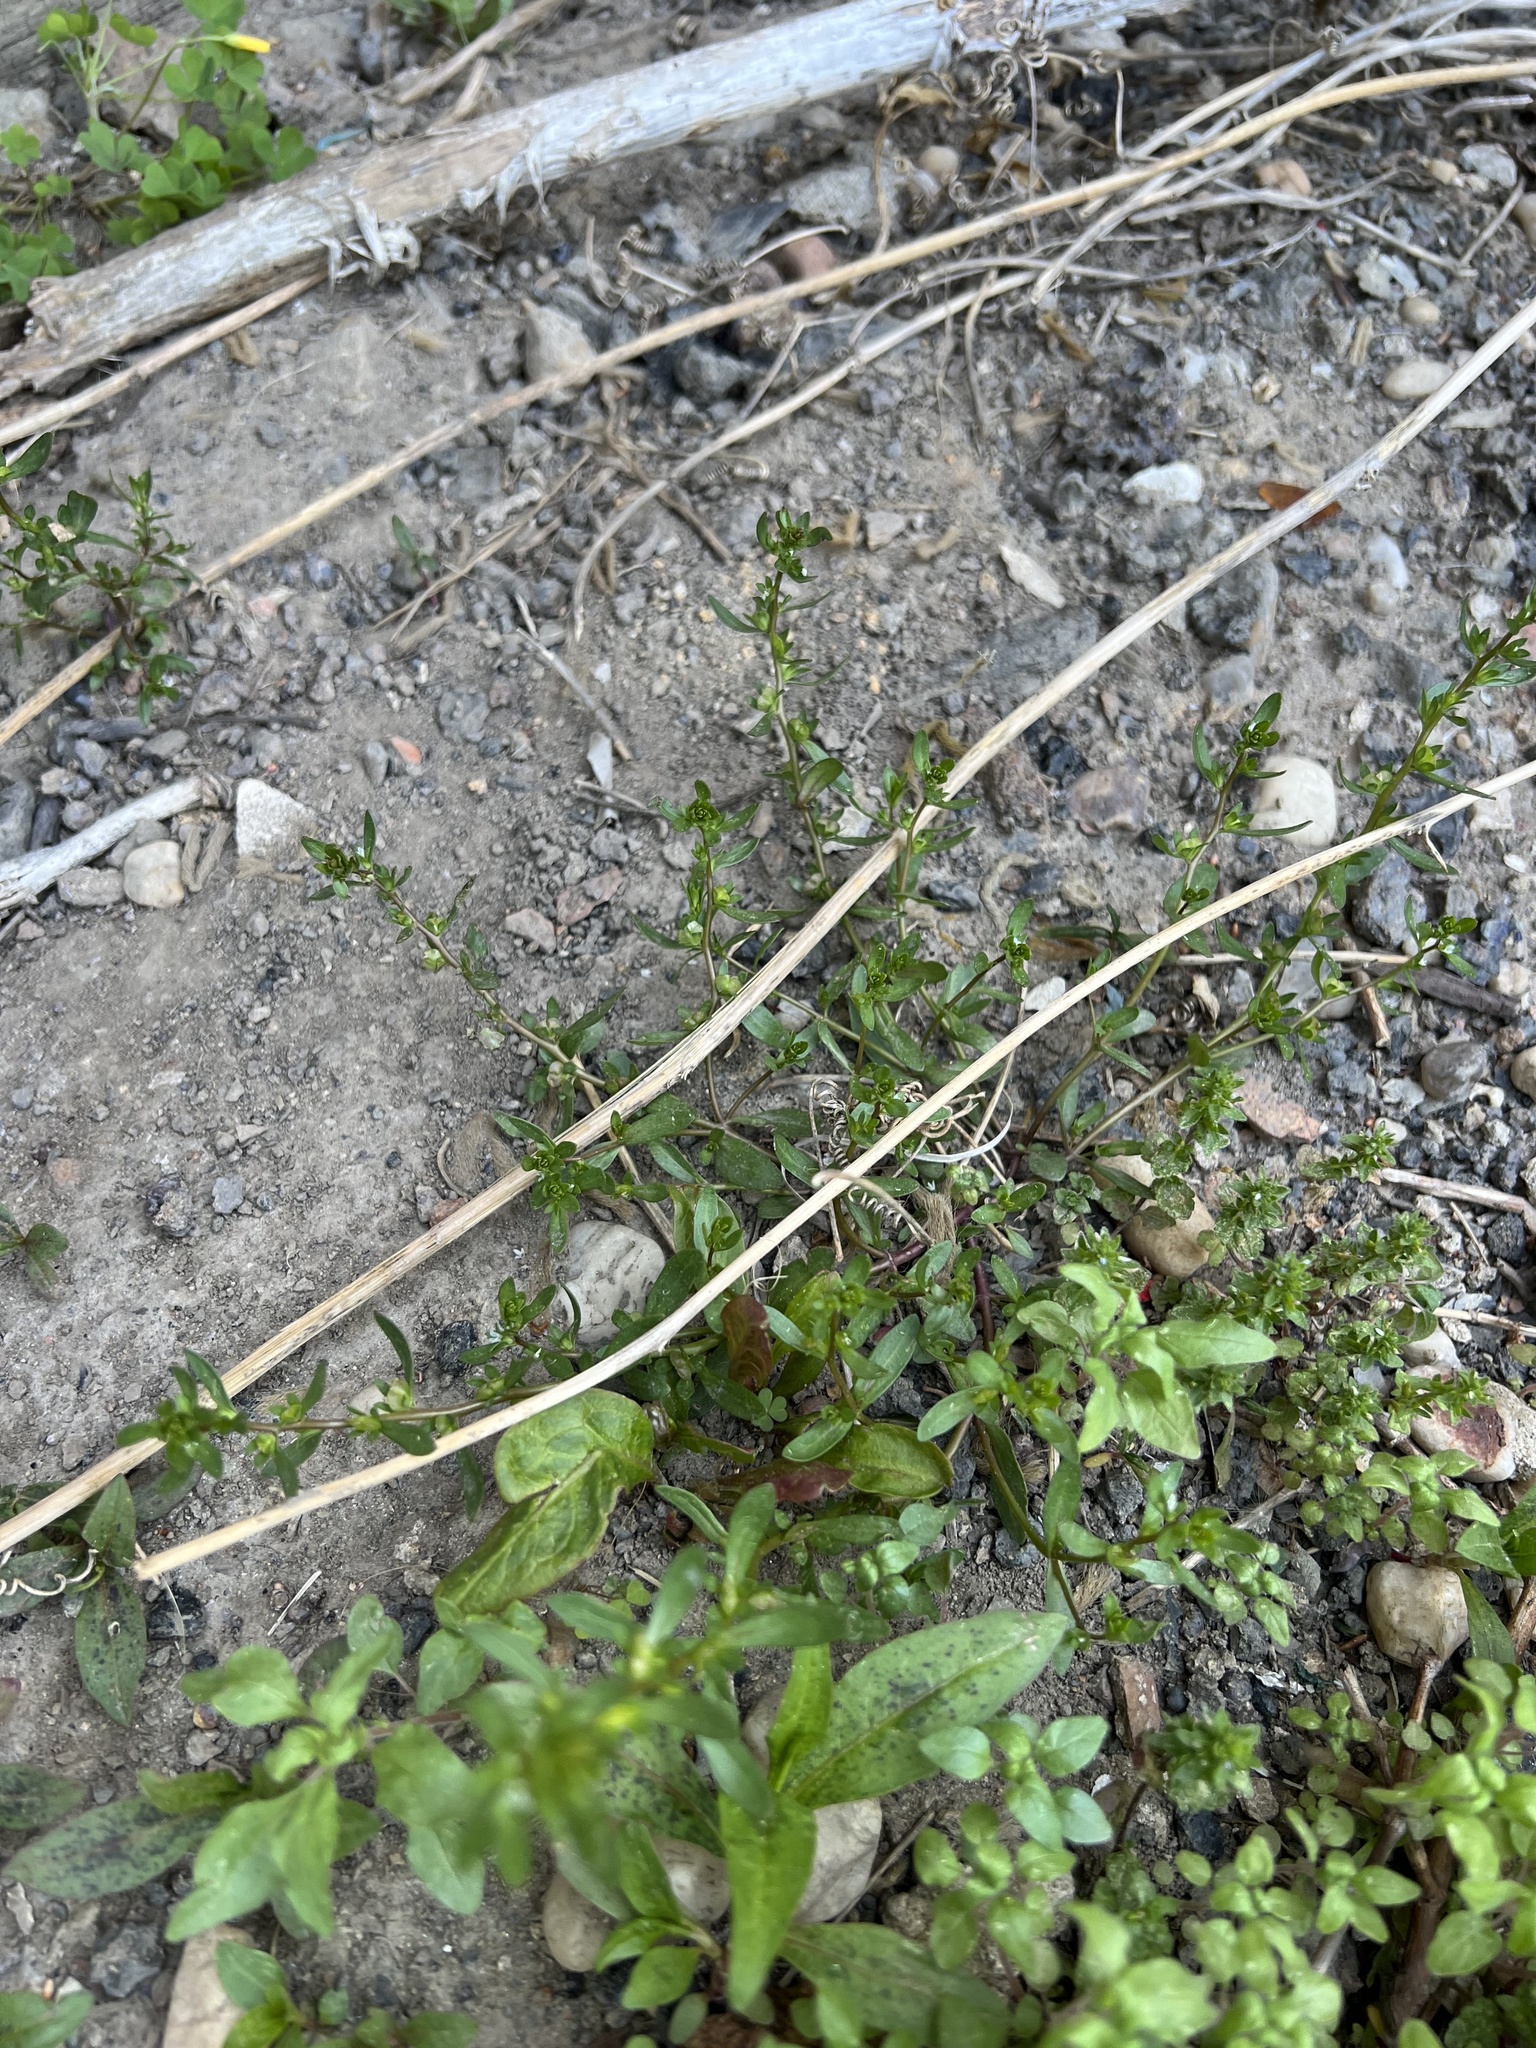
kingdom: Plantae
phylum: Tracheophyta
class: Magnoliopsida
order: Lamiales
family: Plantaginaceae
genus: Veronica
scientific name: Veronica peregrina
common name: Neckweed
